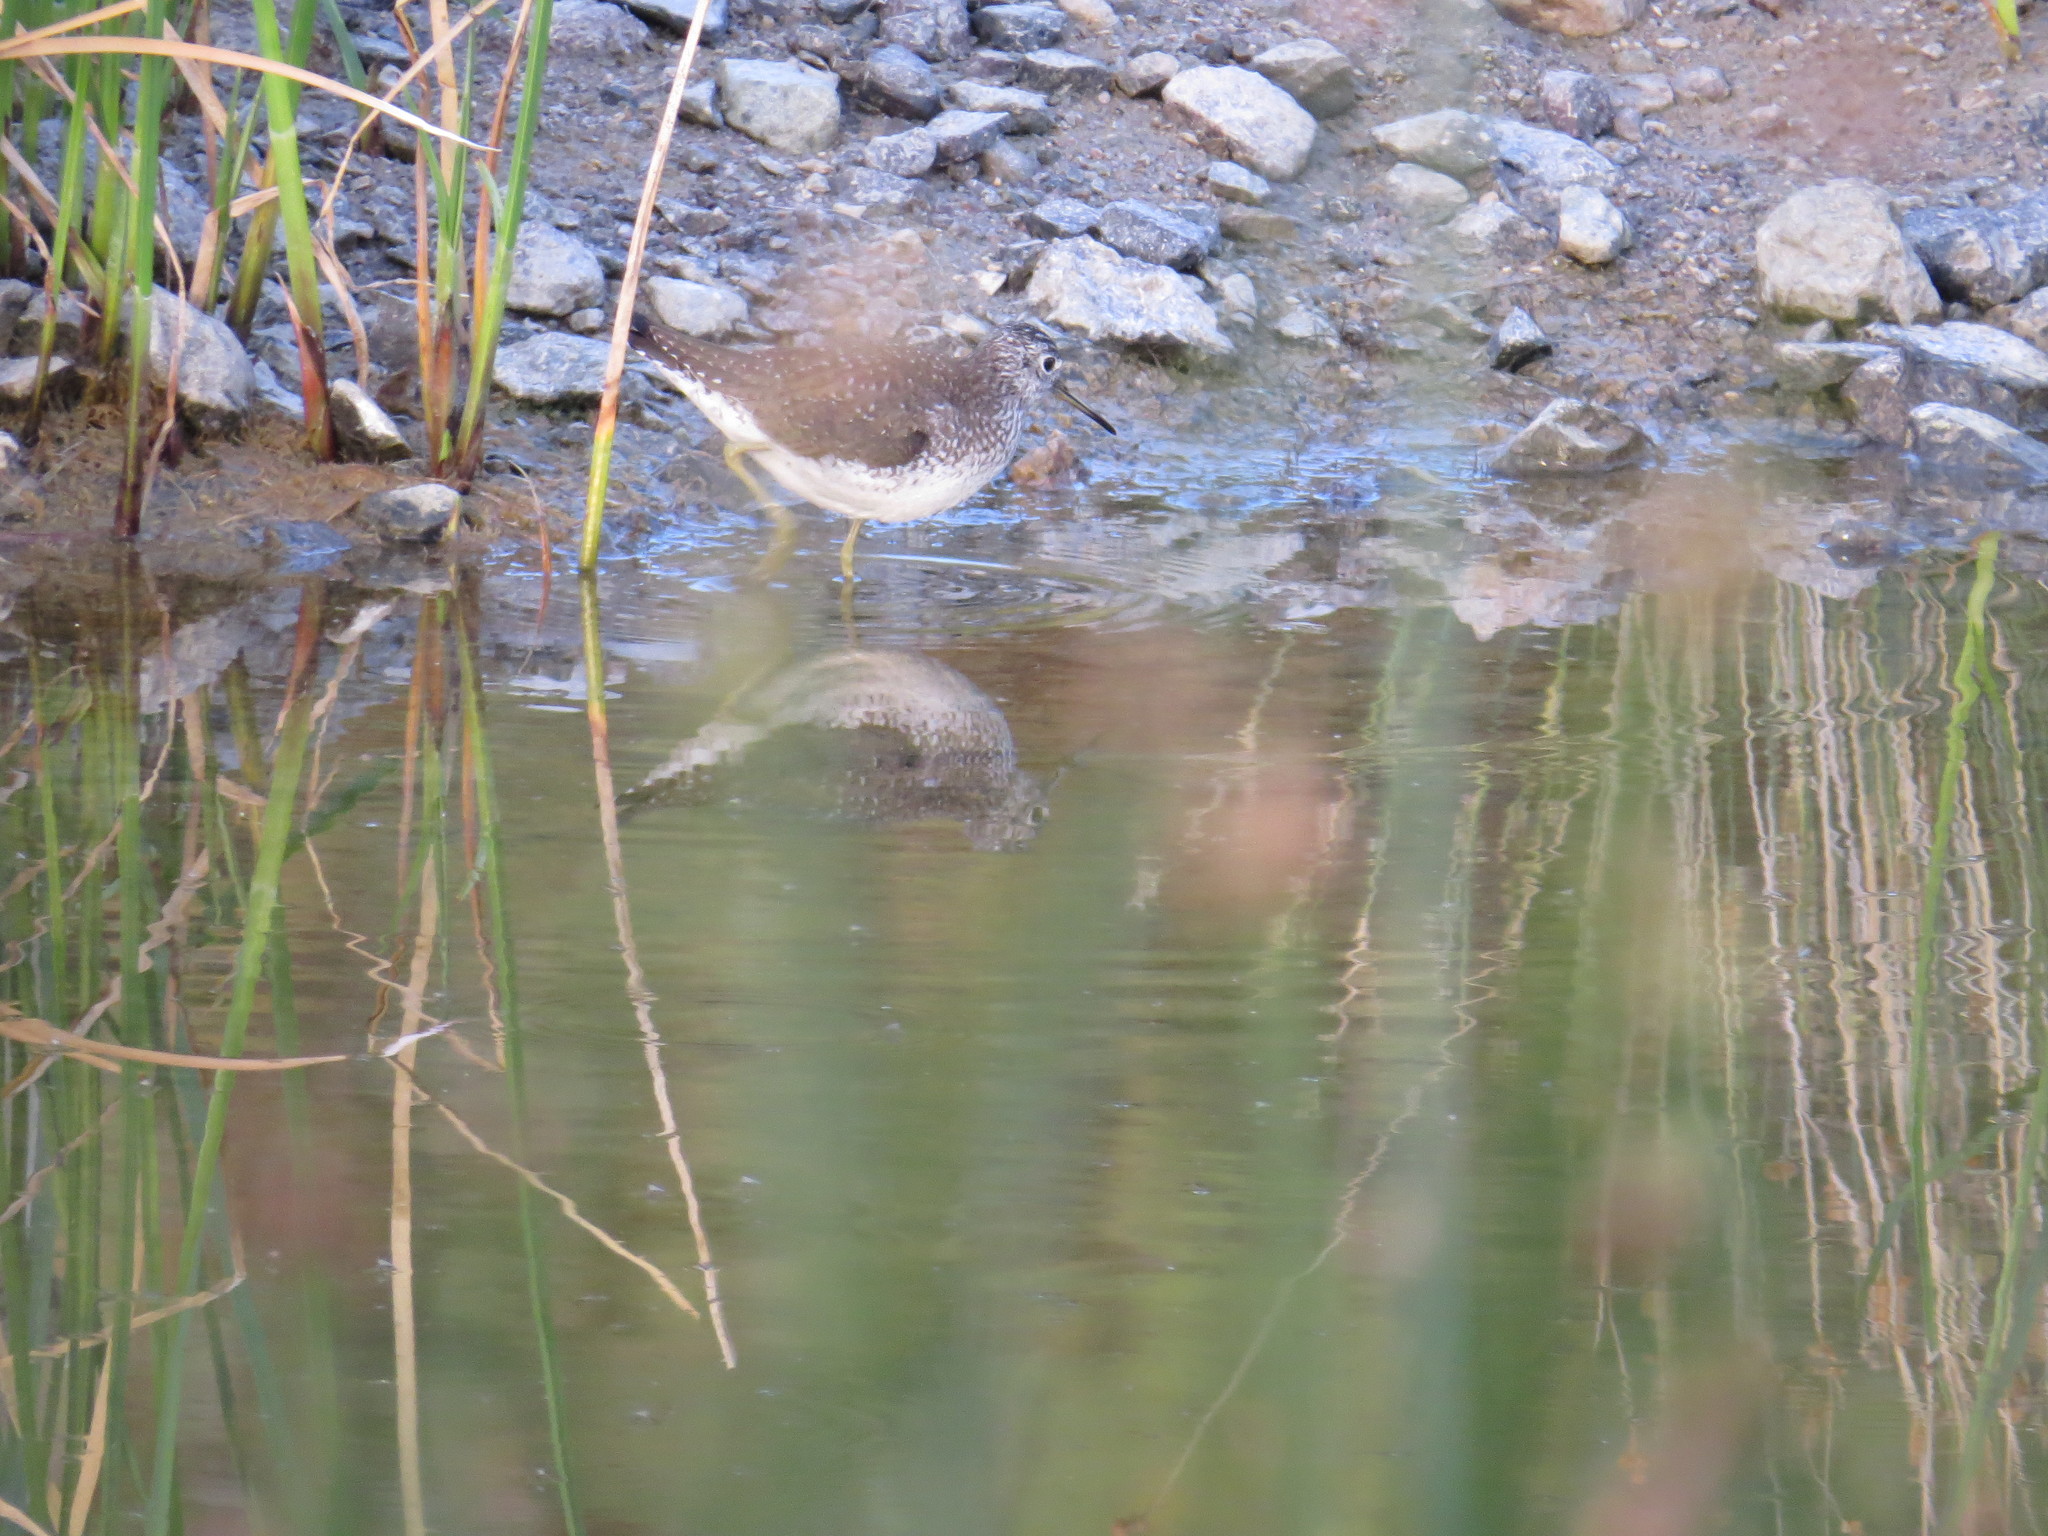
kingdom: Animalia
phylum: Chordata
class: Aves
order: Charadriiformes
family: Scolopacidae
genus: Tringa
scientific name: Tringa solitaria
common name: Solitary sandpiper
